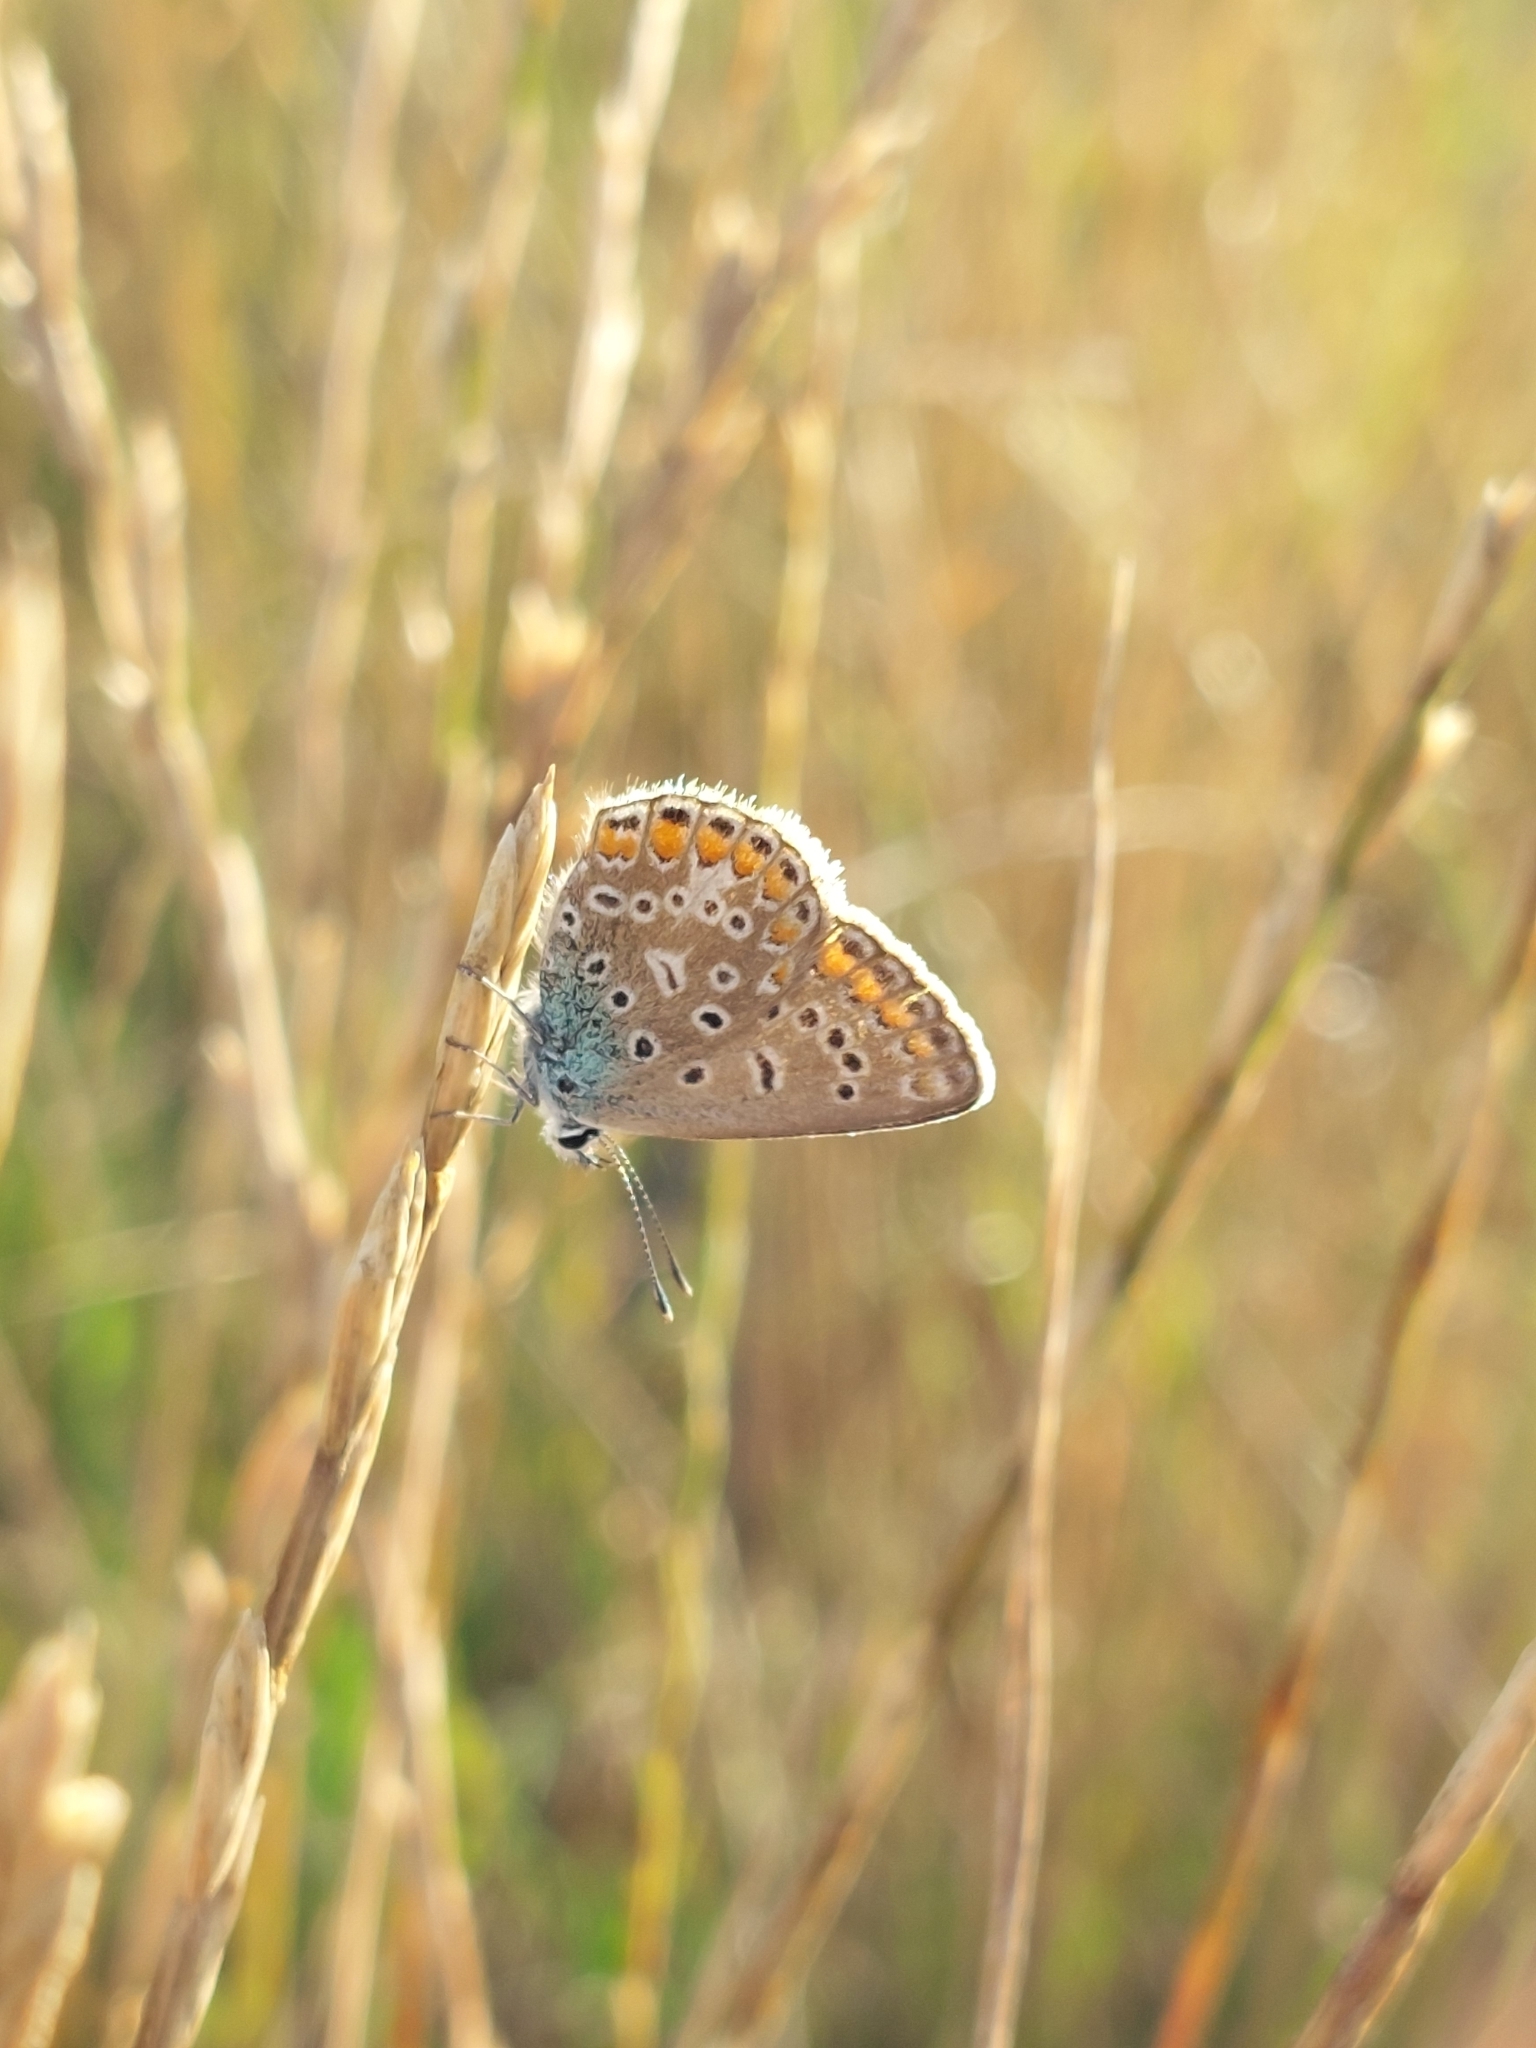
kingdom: Animalia
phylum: Arthropoda
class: Insecta
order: Lepidoptera
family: Lycaenidae
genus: Polyommatus
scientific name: Polyommatus icarus
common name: Common blue
